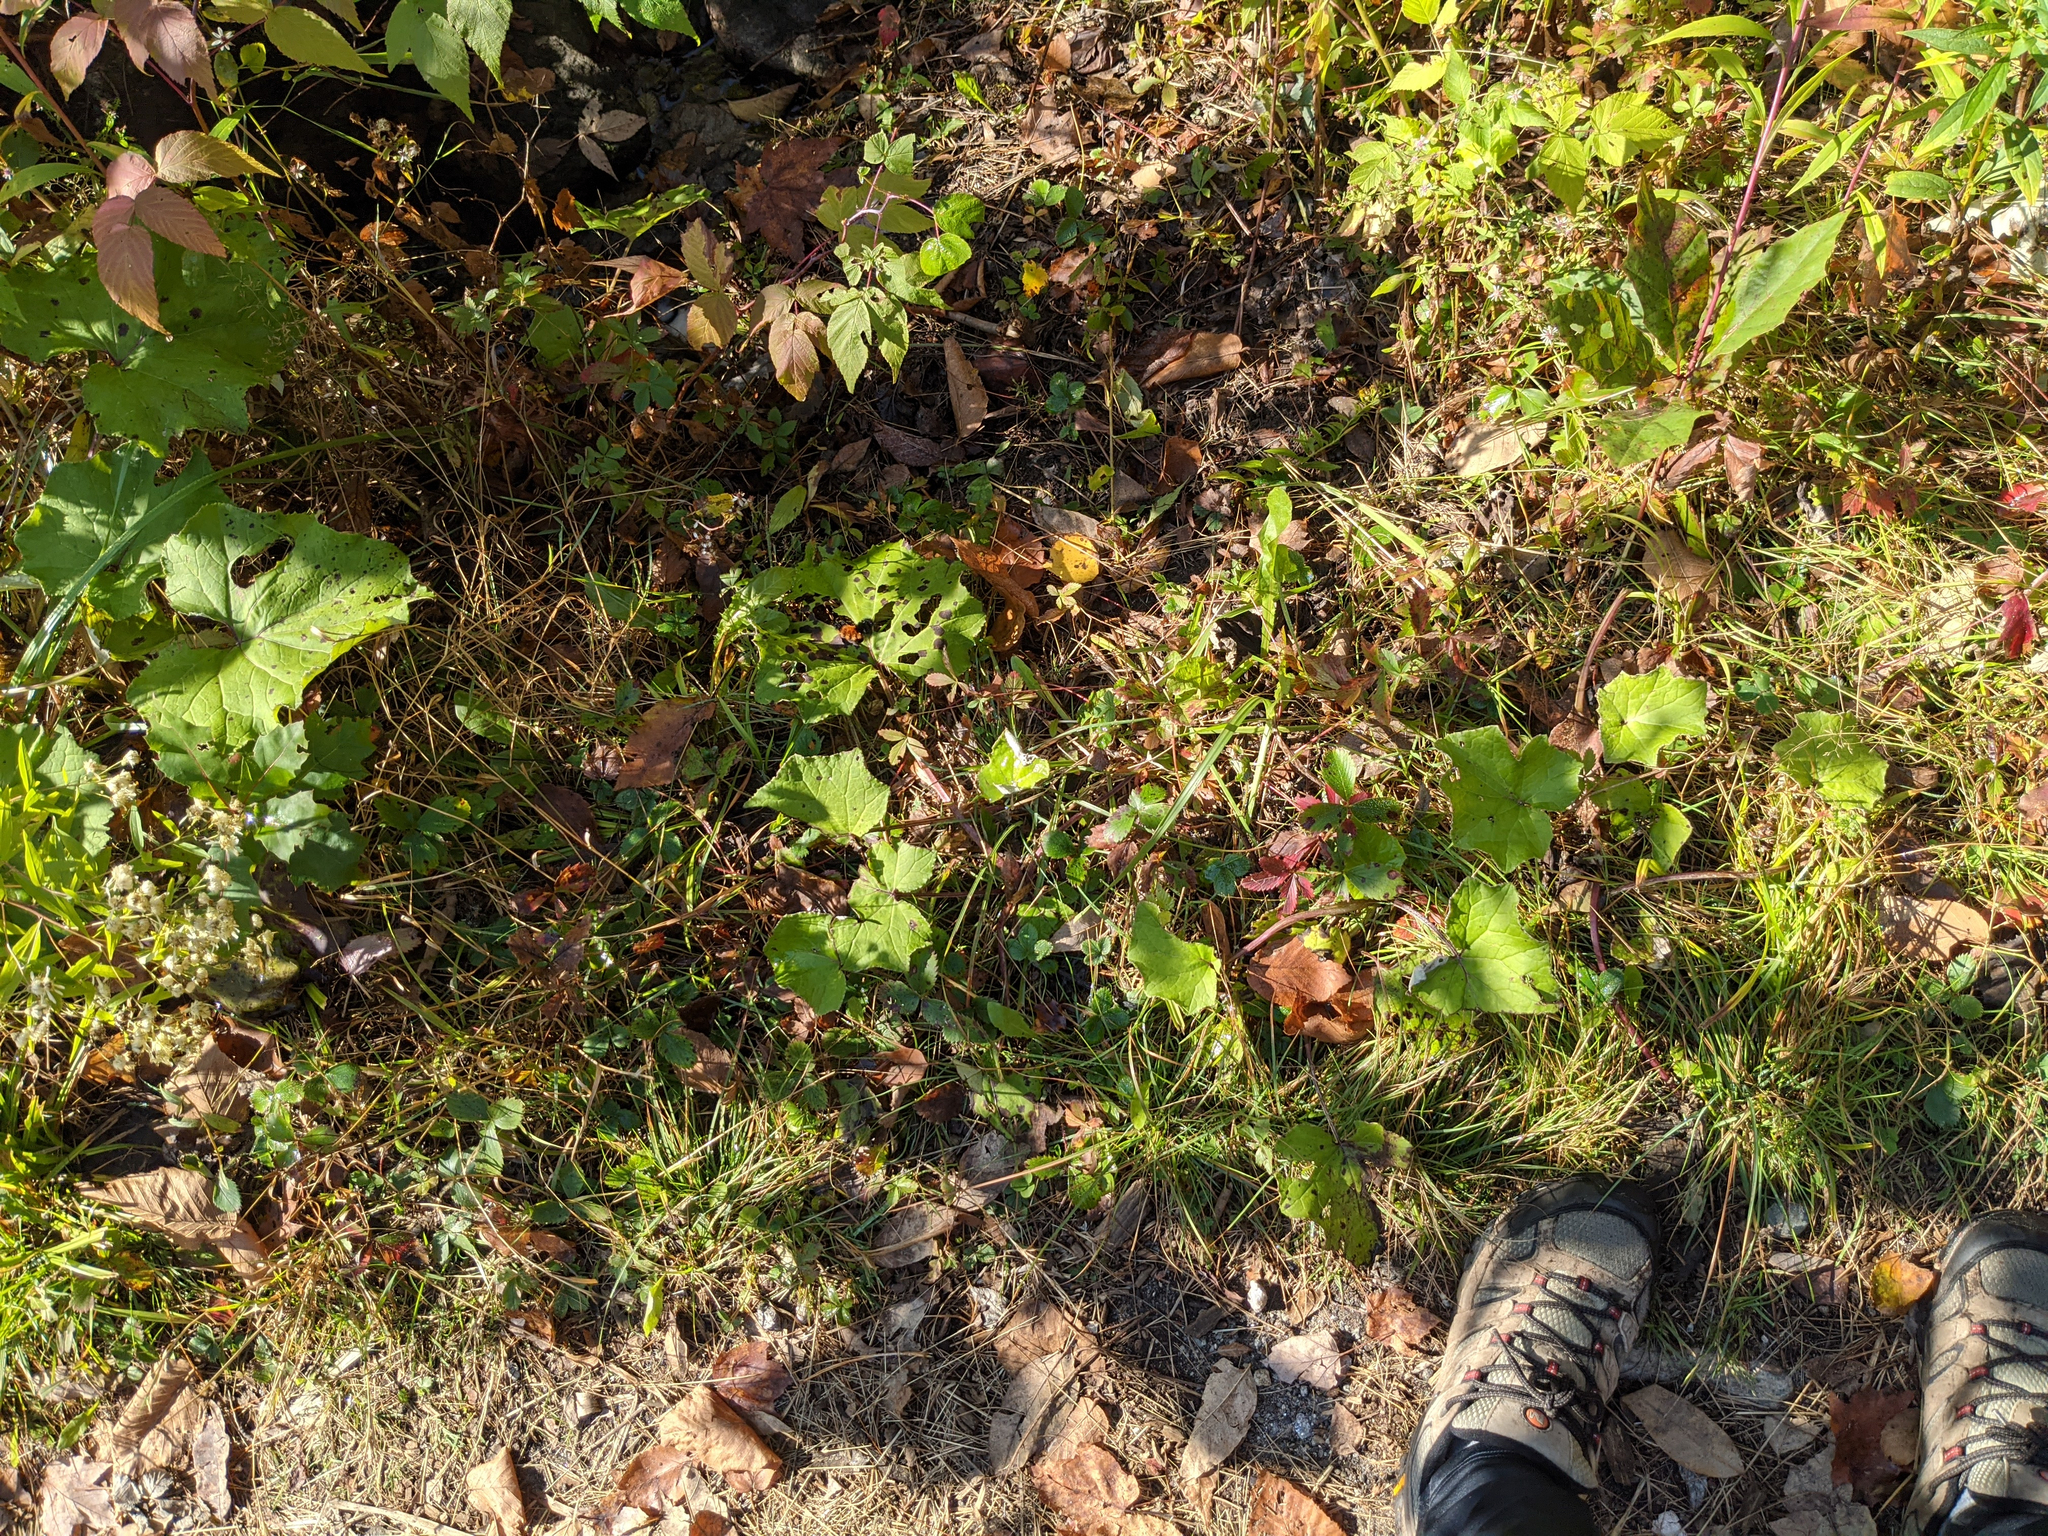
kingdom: Plantae
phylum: Tracheophyta
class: Magnoliopsida
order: Asterales
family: Asteraceae
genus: Tussilago
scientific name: Tussilago farfara
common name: Coltsfoot
